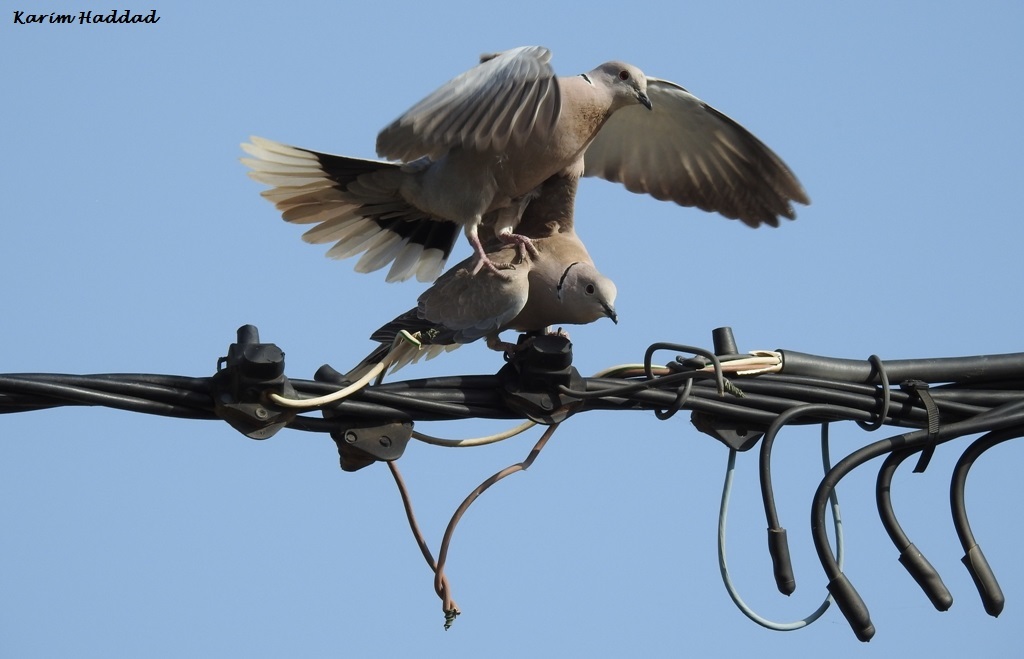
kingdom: Animalia
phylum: Chordata
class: Aves
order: Columbiformes
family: Columbidae
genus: Streptopelia
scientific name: Streptopelia decaocto
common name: Eurasian collared dove
